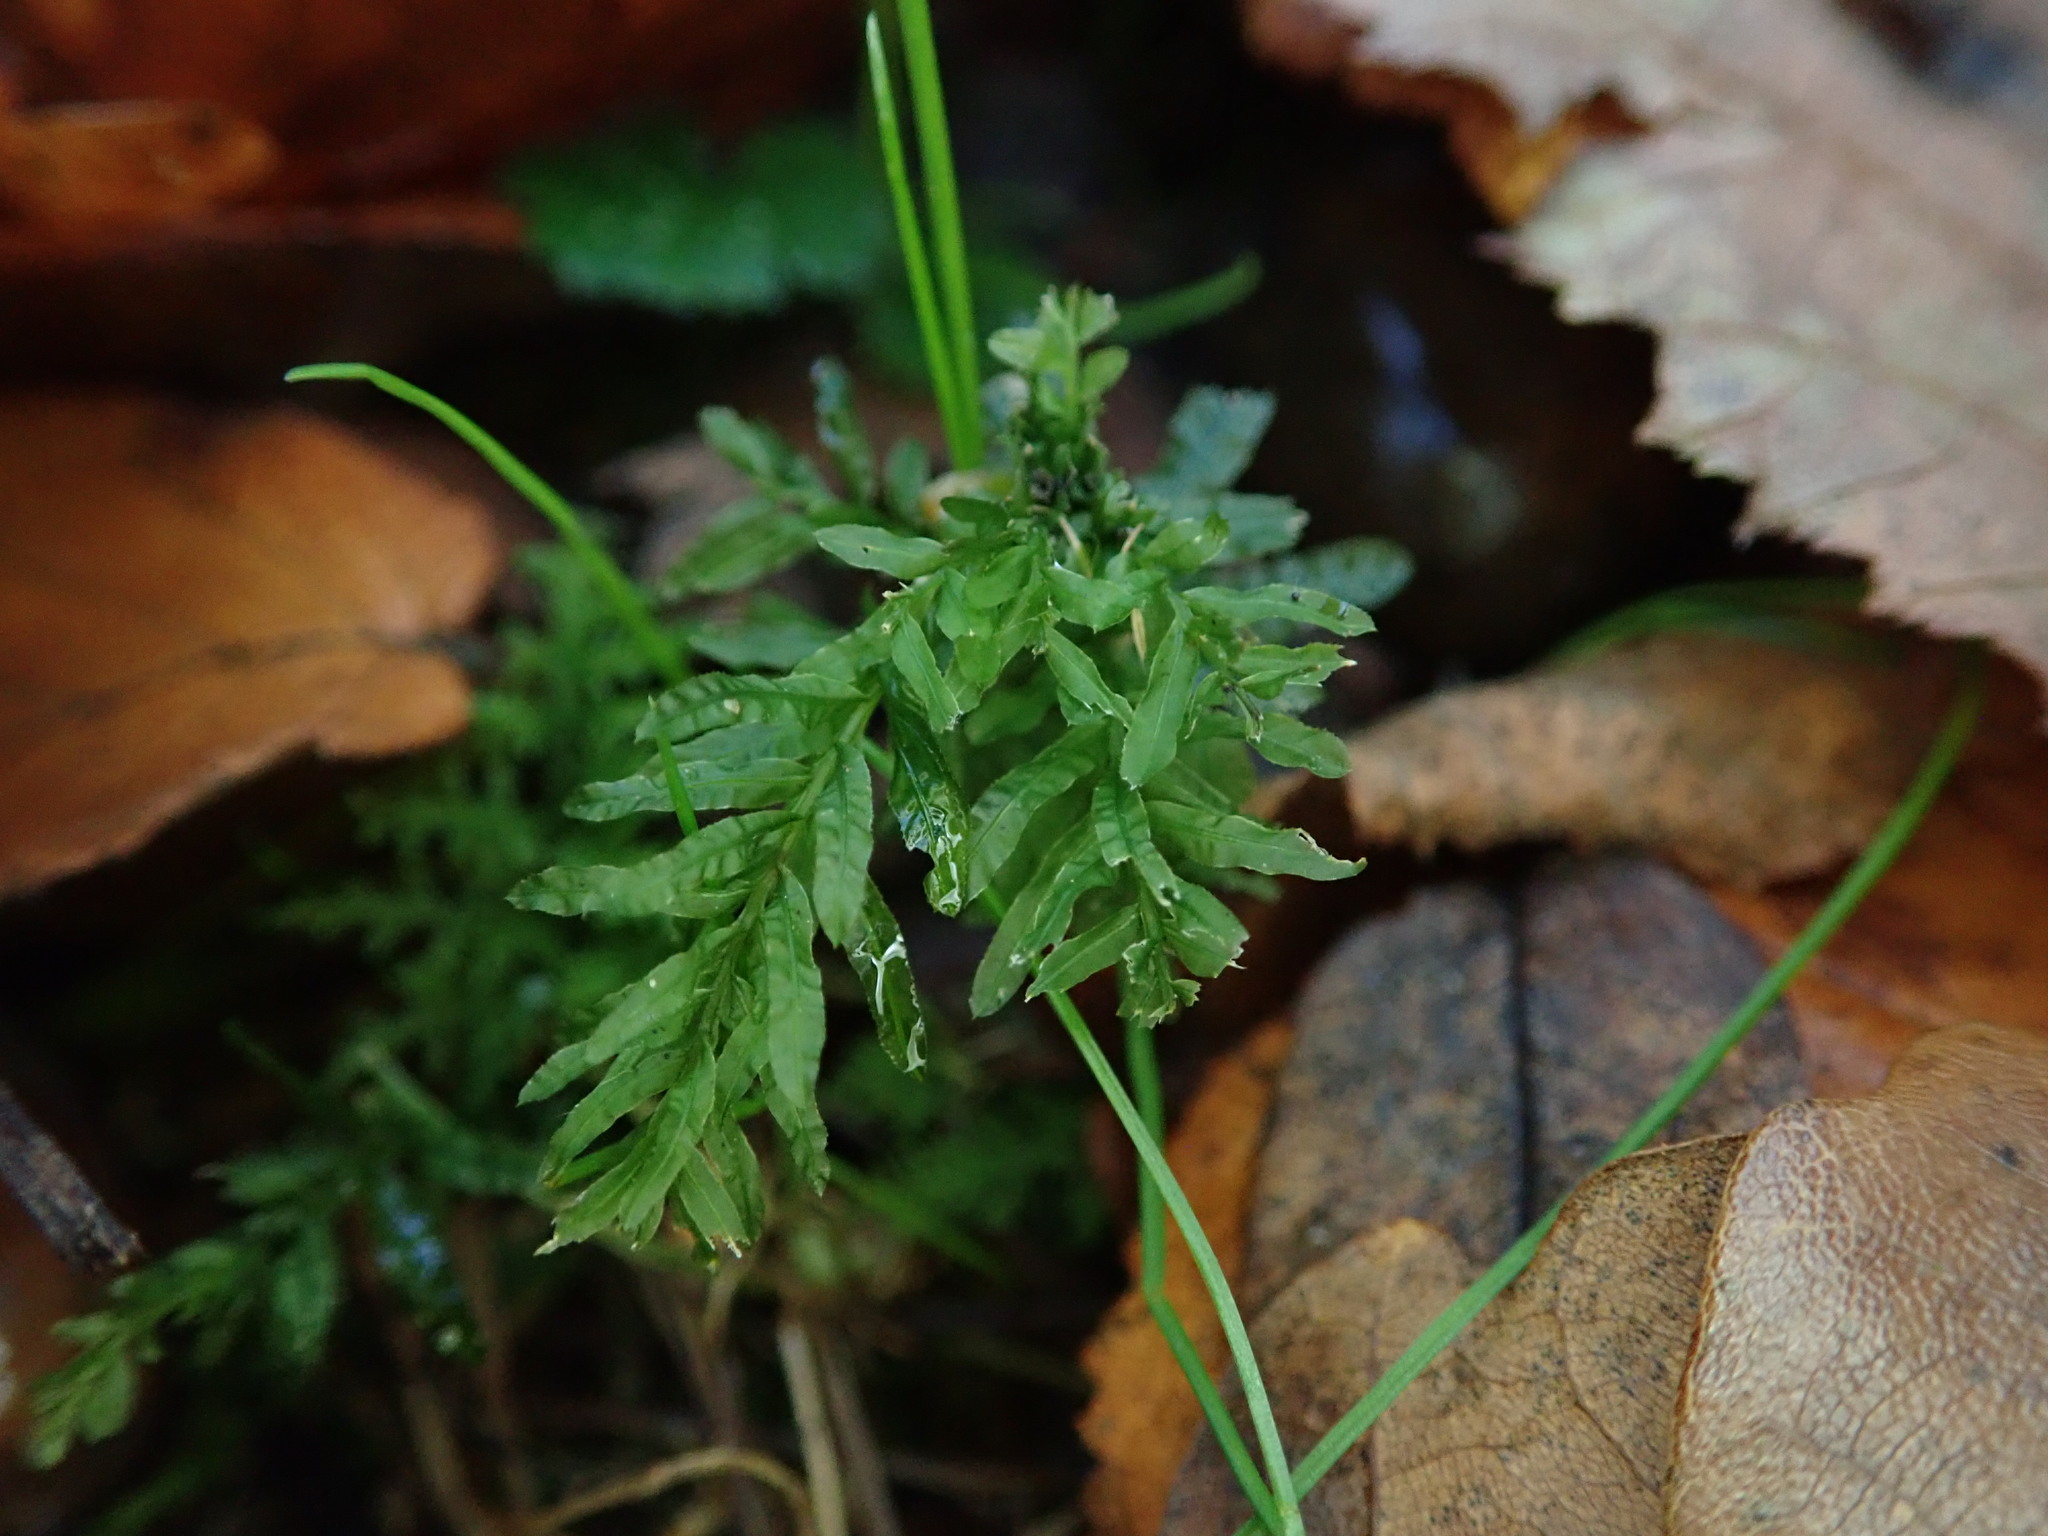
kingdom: Plantae
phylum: Bryophyta
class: Bryopsida
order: Bryales
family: Mniaceae
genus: Plagiomnium
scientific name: Plagiomnium undulatum
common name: Hart's-tongue thyme-moss
